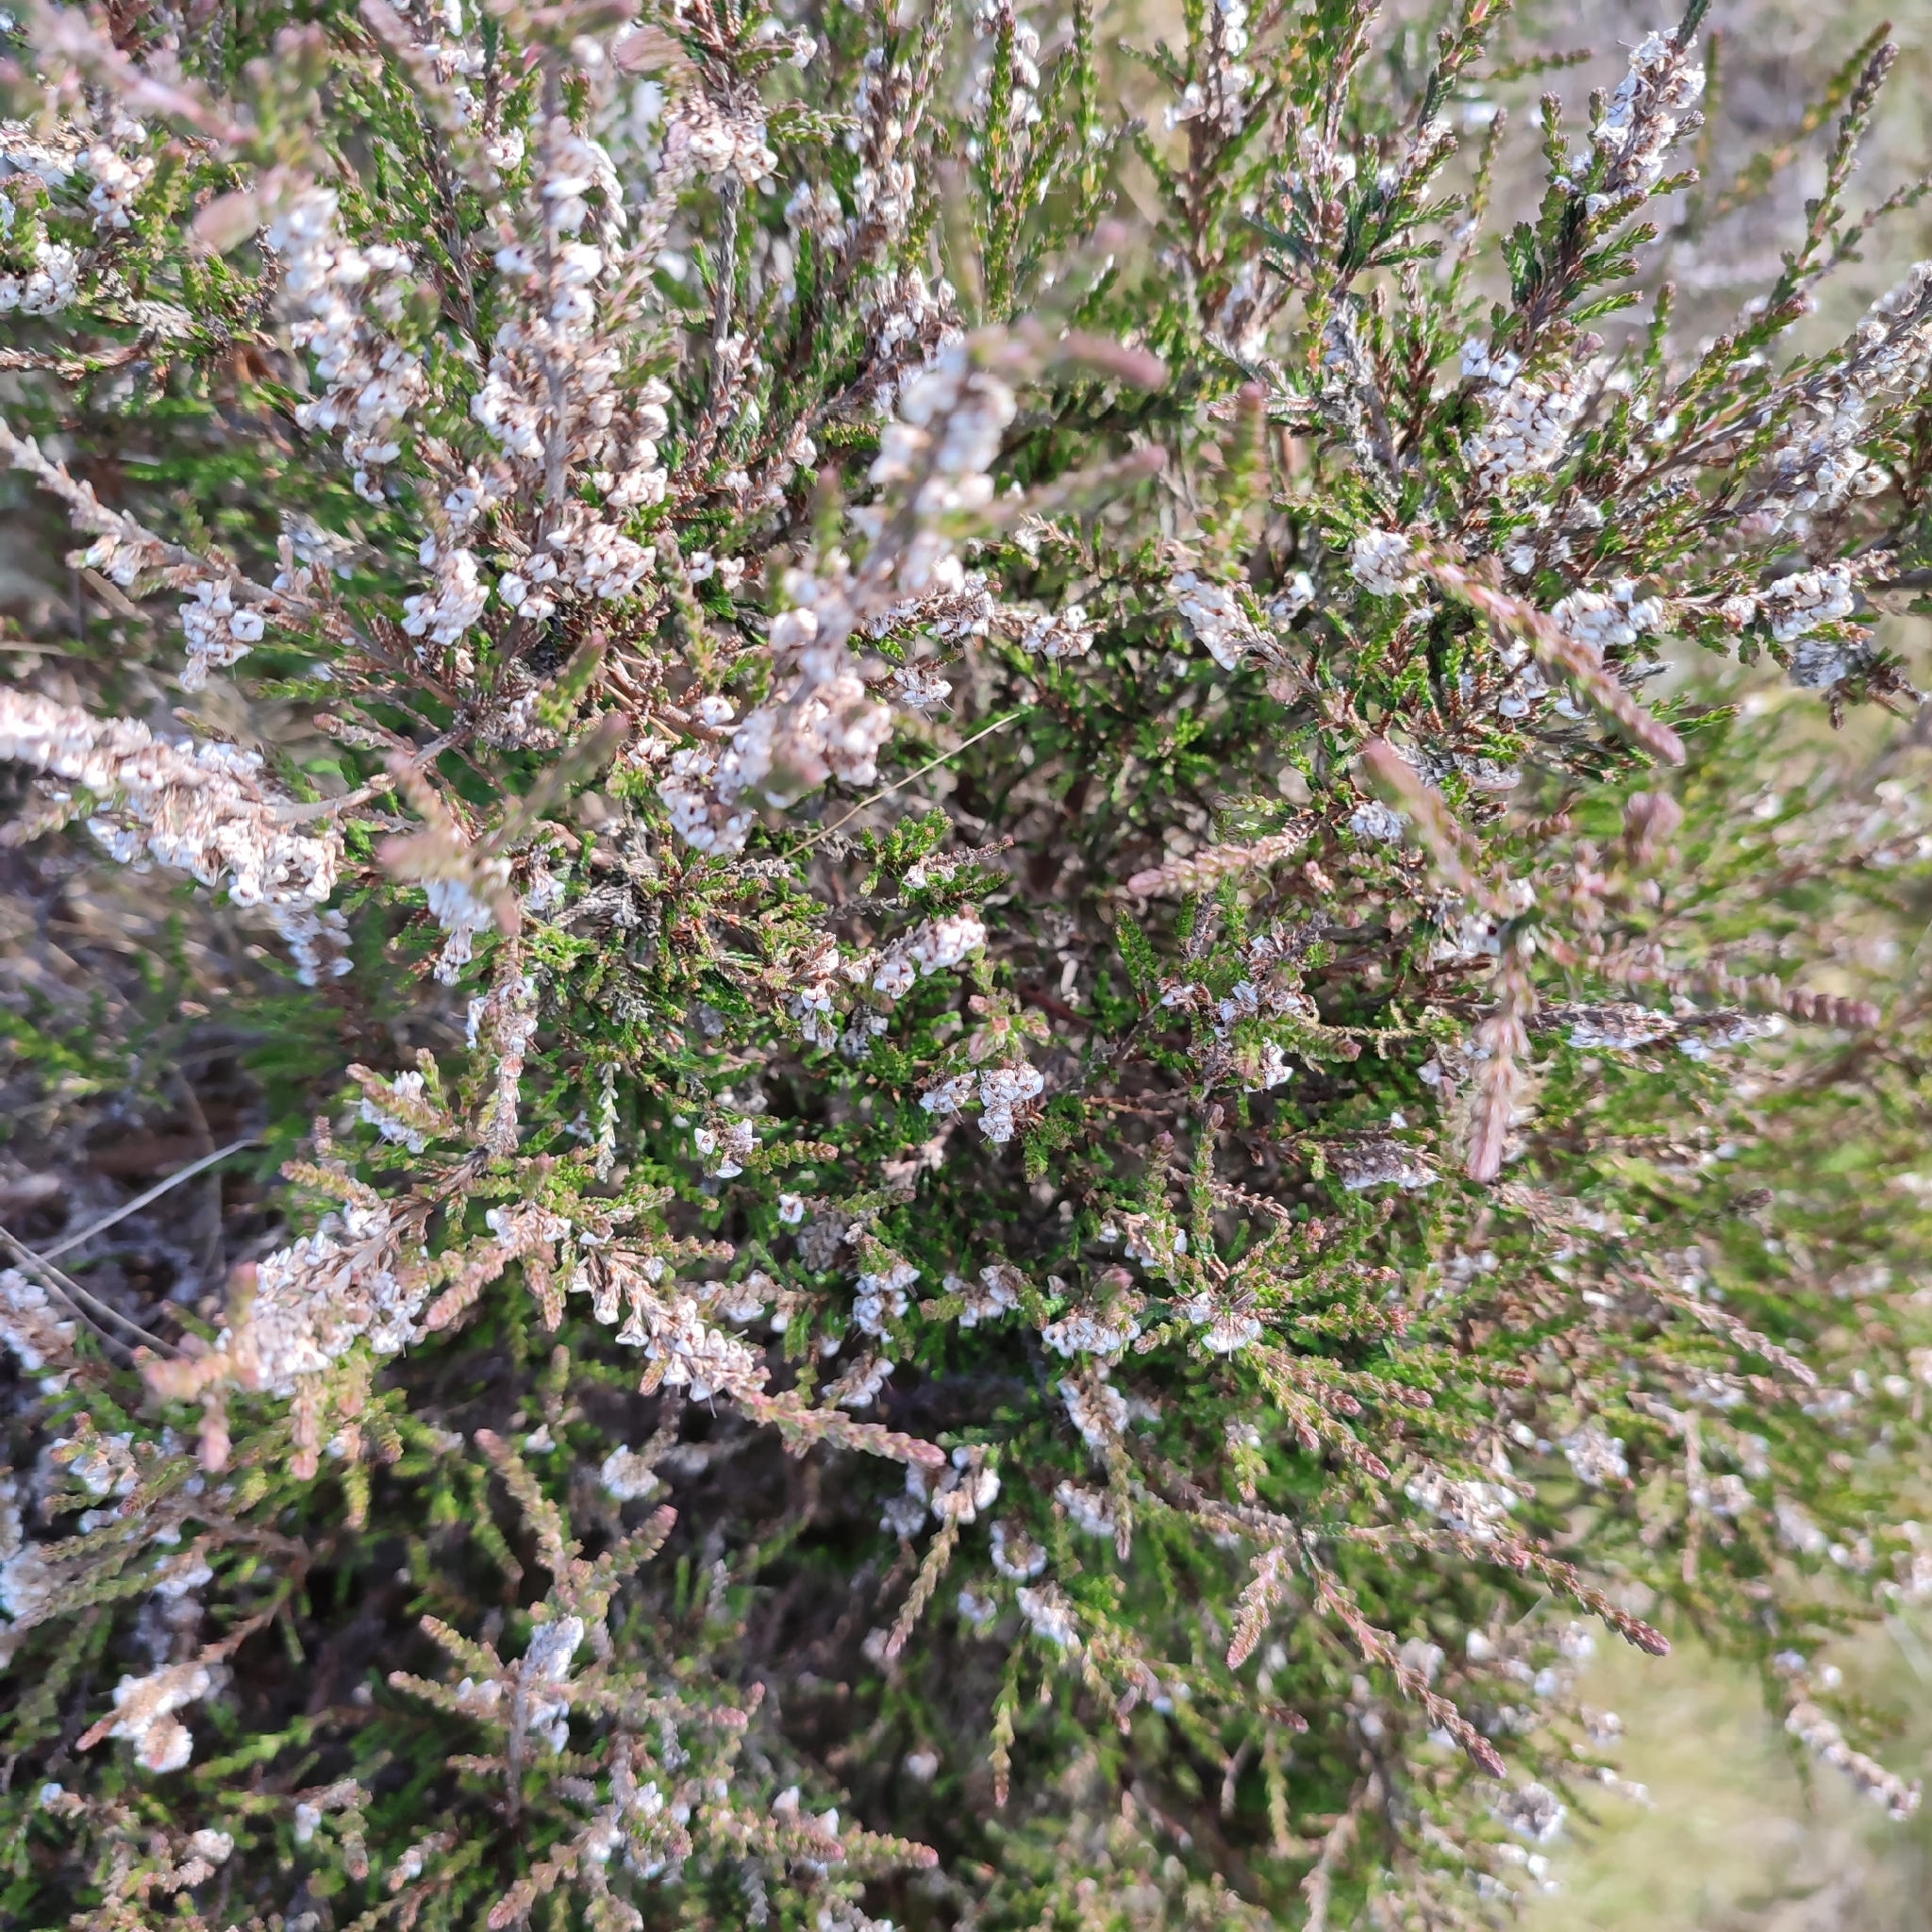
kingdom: Plantae
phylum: Tracheophyta
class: Magnoliopsida
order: Ericales
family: Ericaceae
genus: Calluna
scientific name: Calluna vulgaris
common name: Heather
